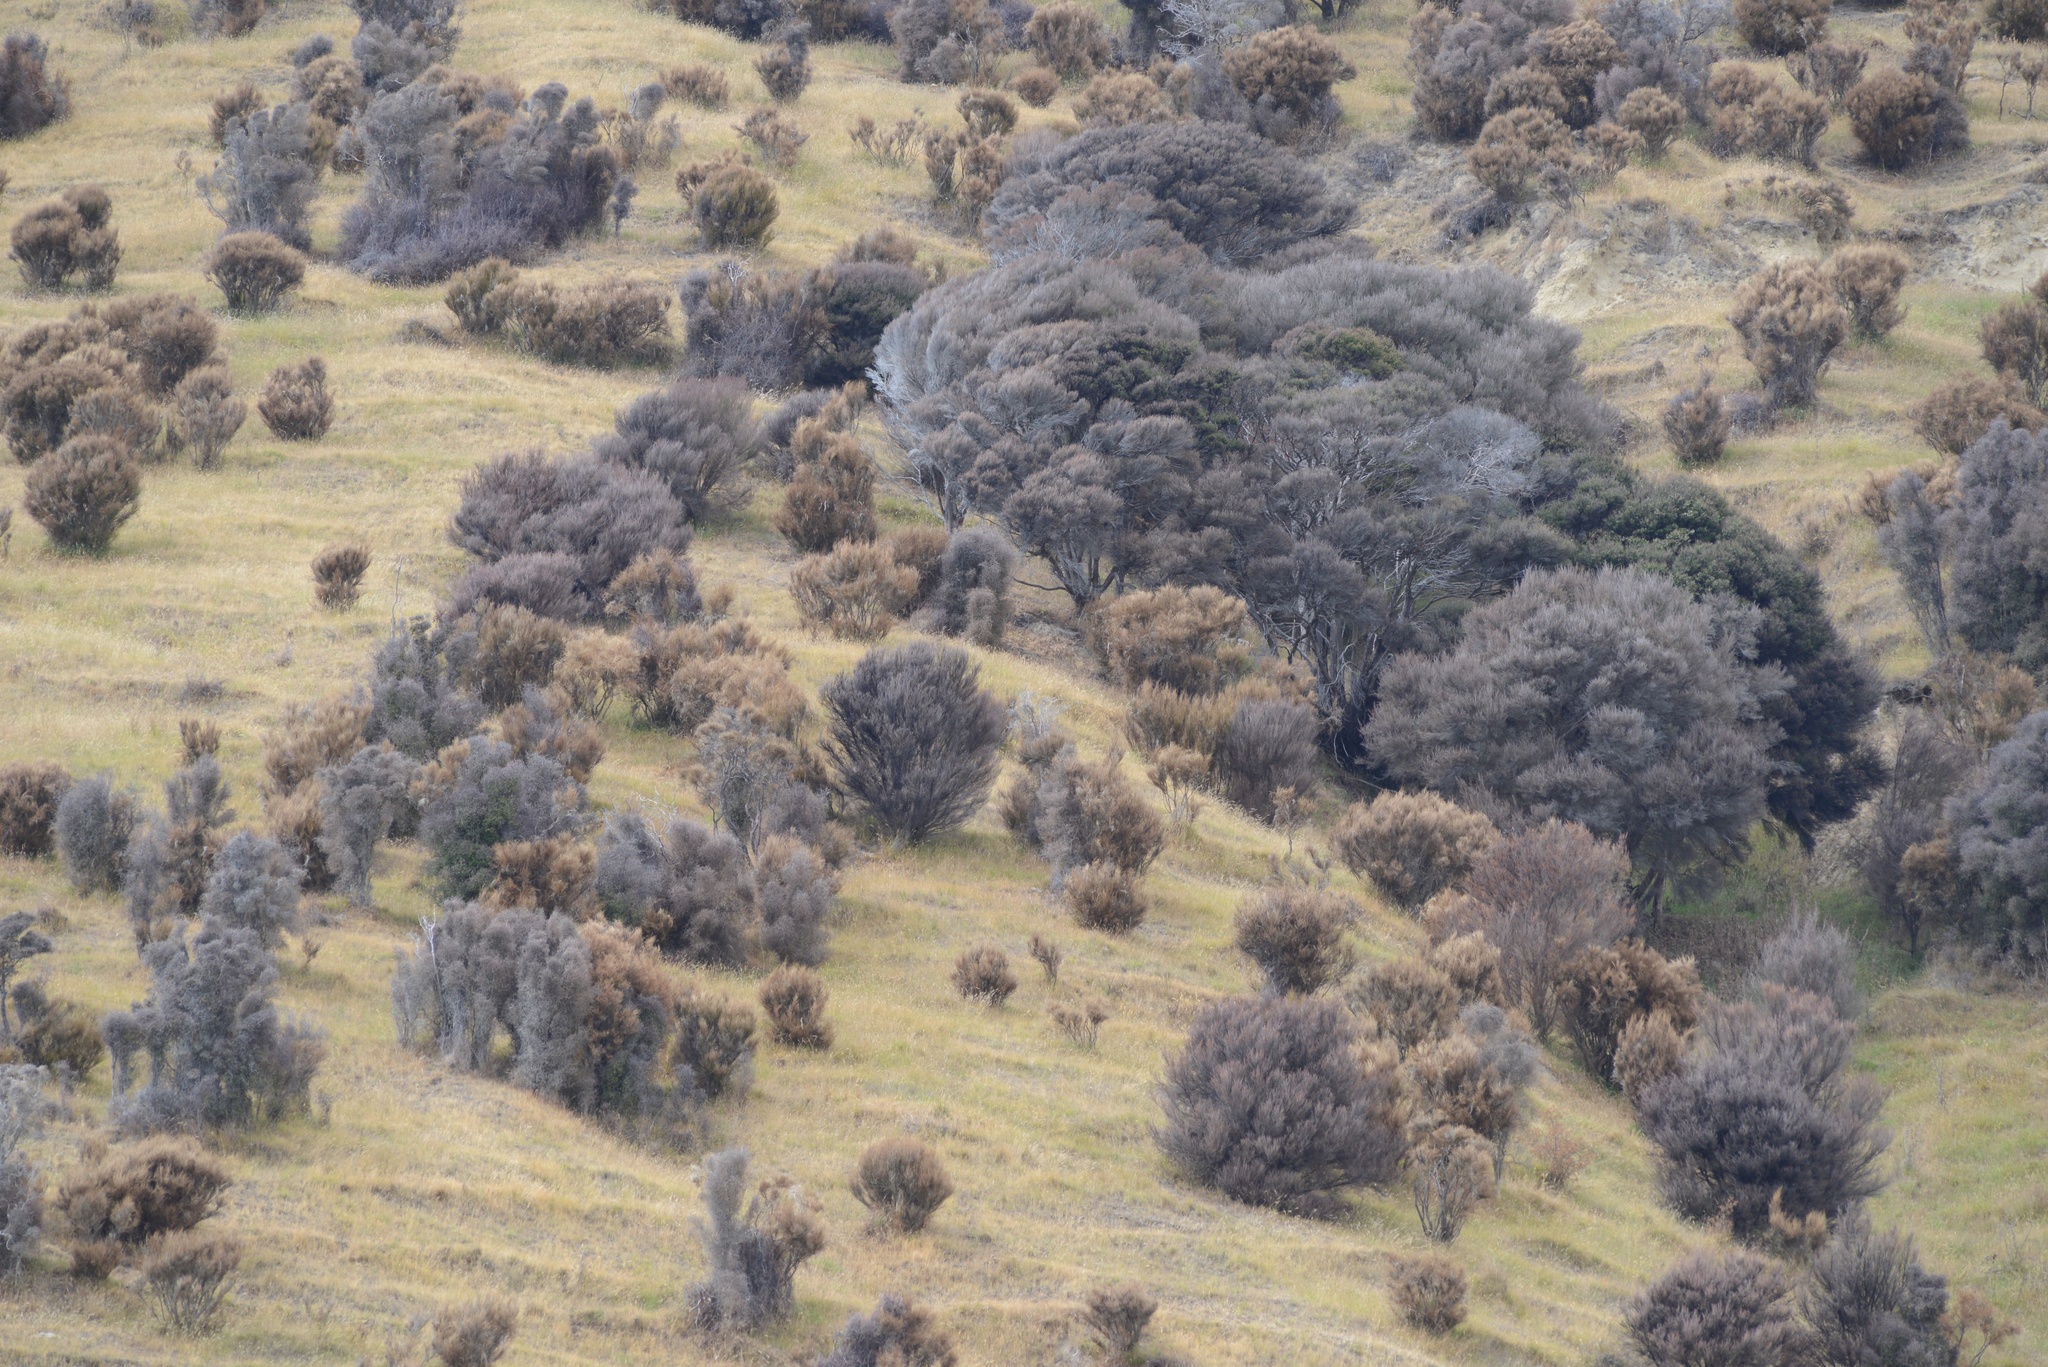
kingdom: Plantae
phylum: Tracheophyta
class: Magnoliopsida
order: Myrtales
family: Myrtaceae
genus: Kunzea
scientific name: Kunzea robusta
